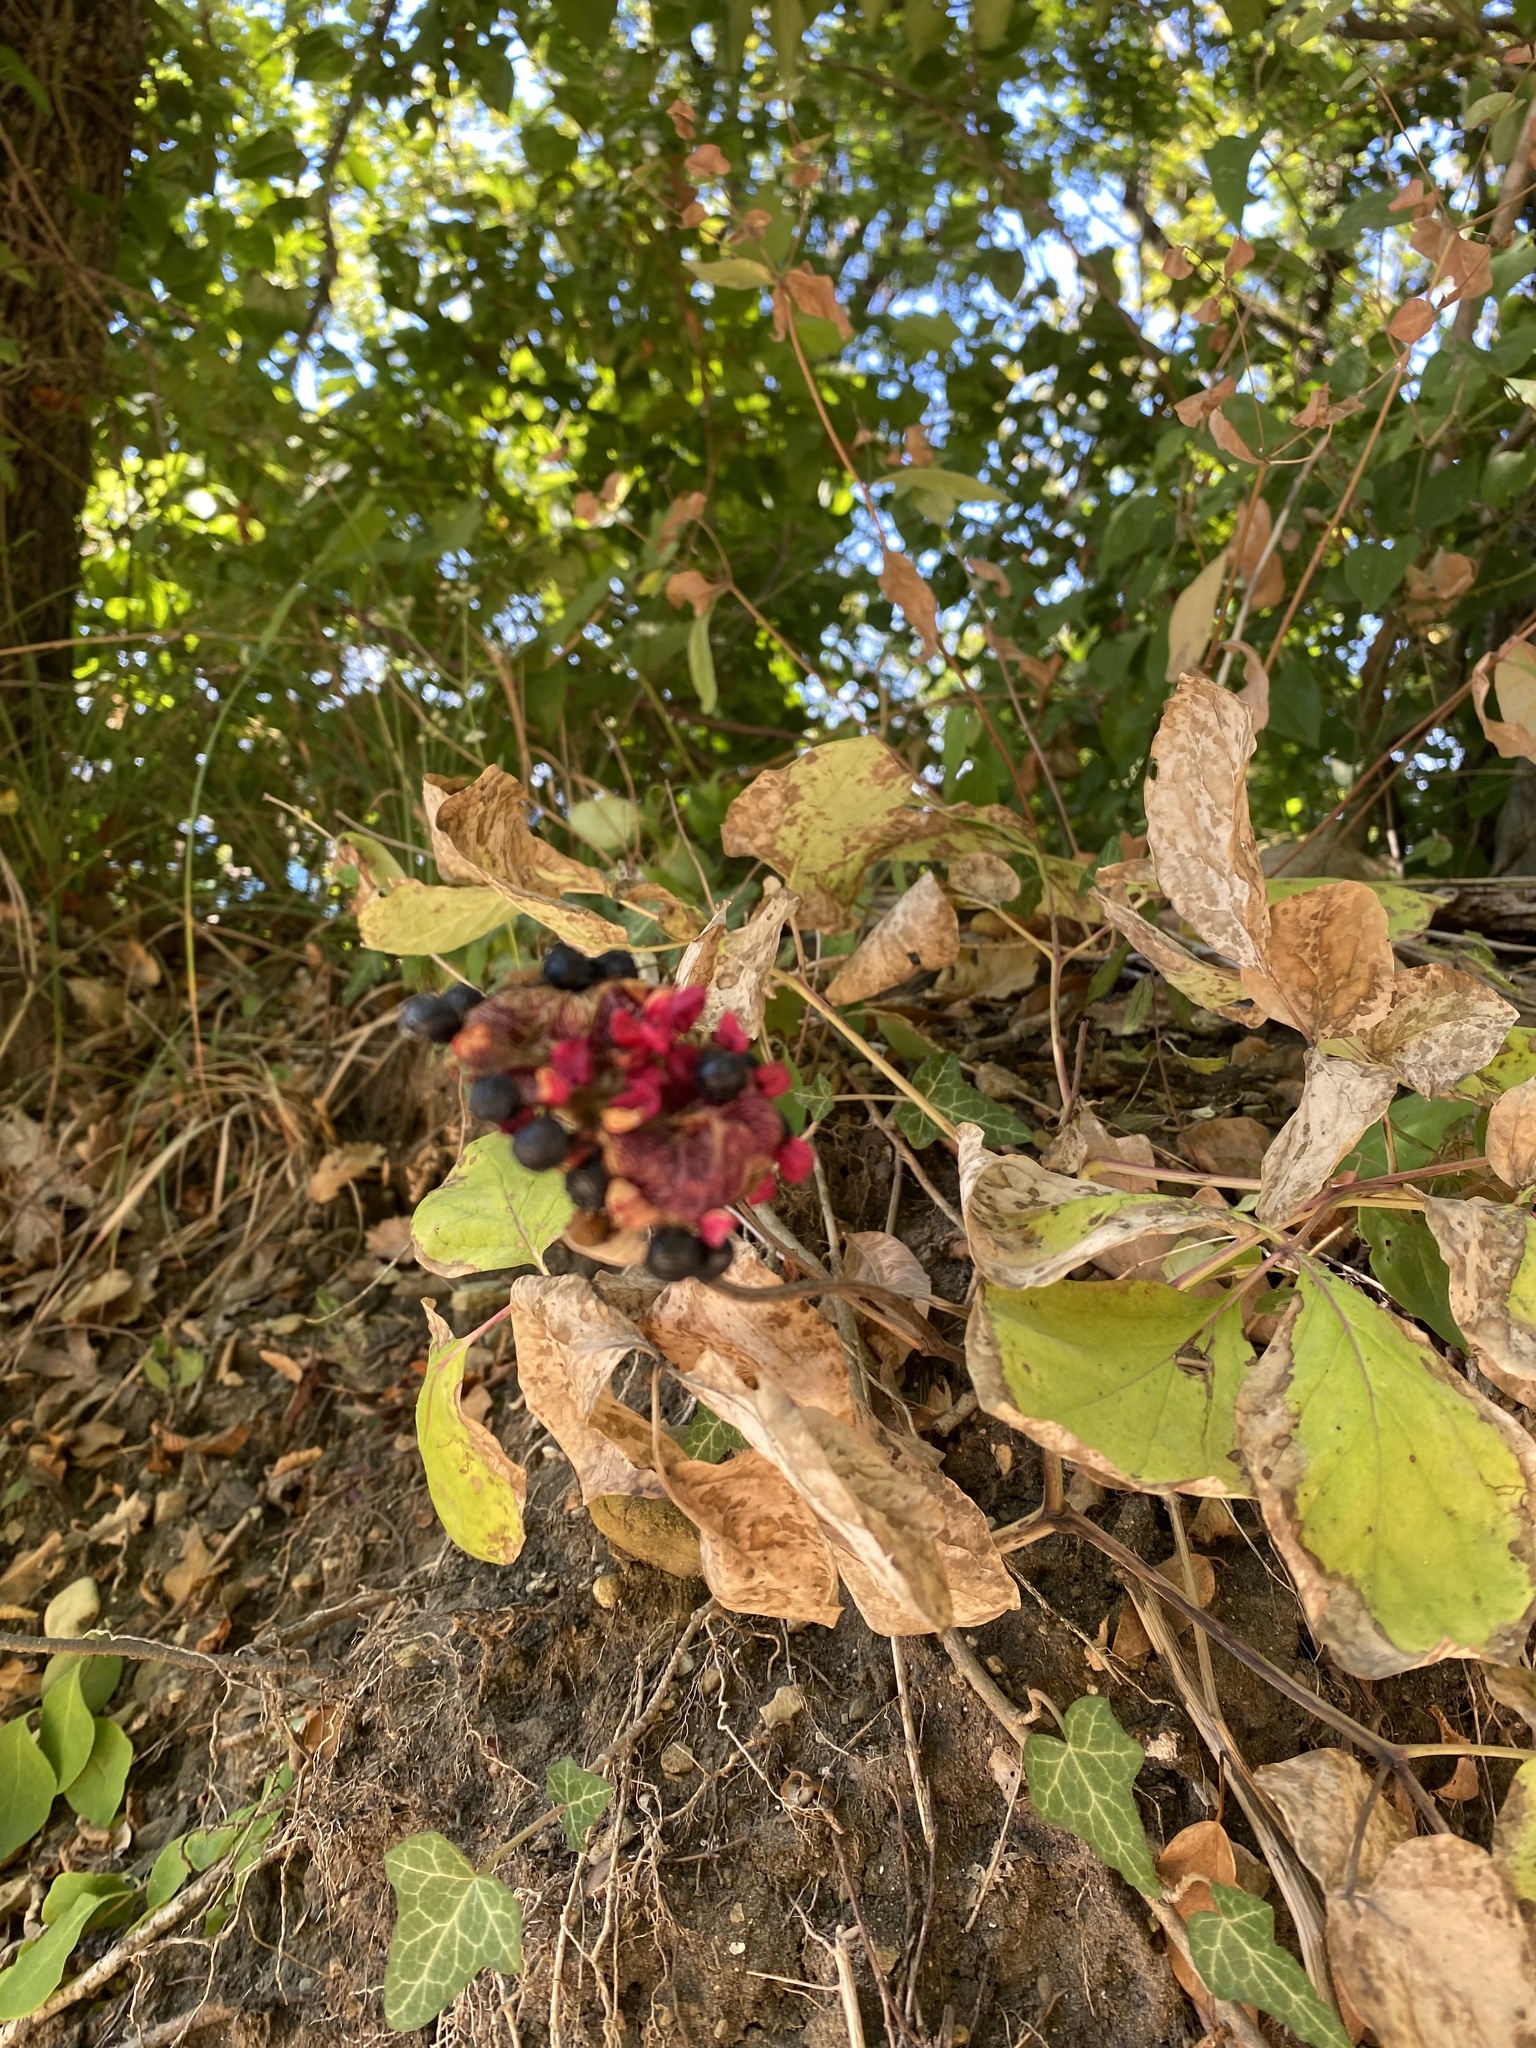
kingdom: Plantae
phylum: Tracheophyta
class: Magnoliopsida
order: Saxifragales
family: Paeoniaceae
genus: Paeonia
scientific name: Paeonia caucasica
